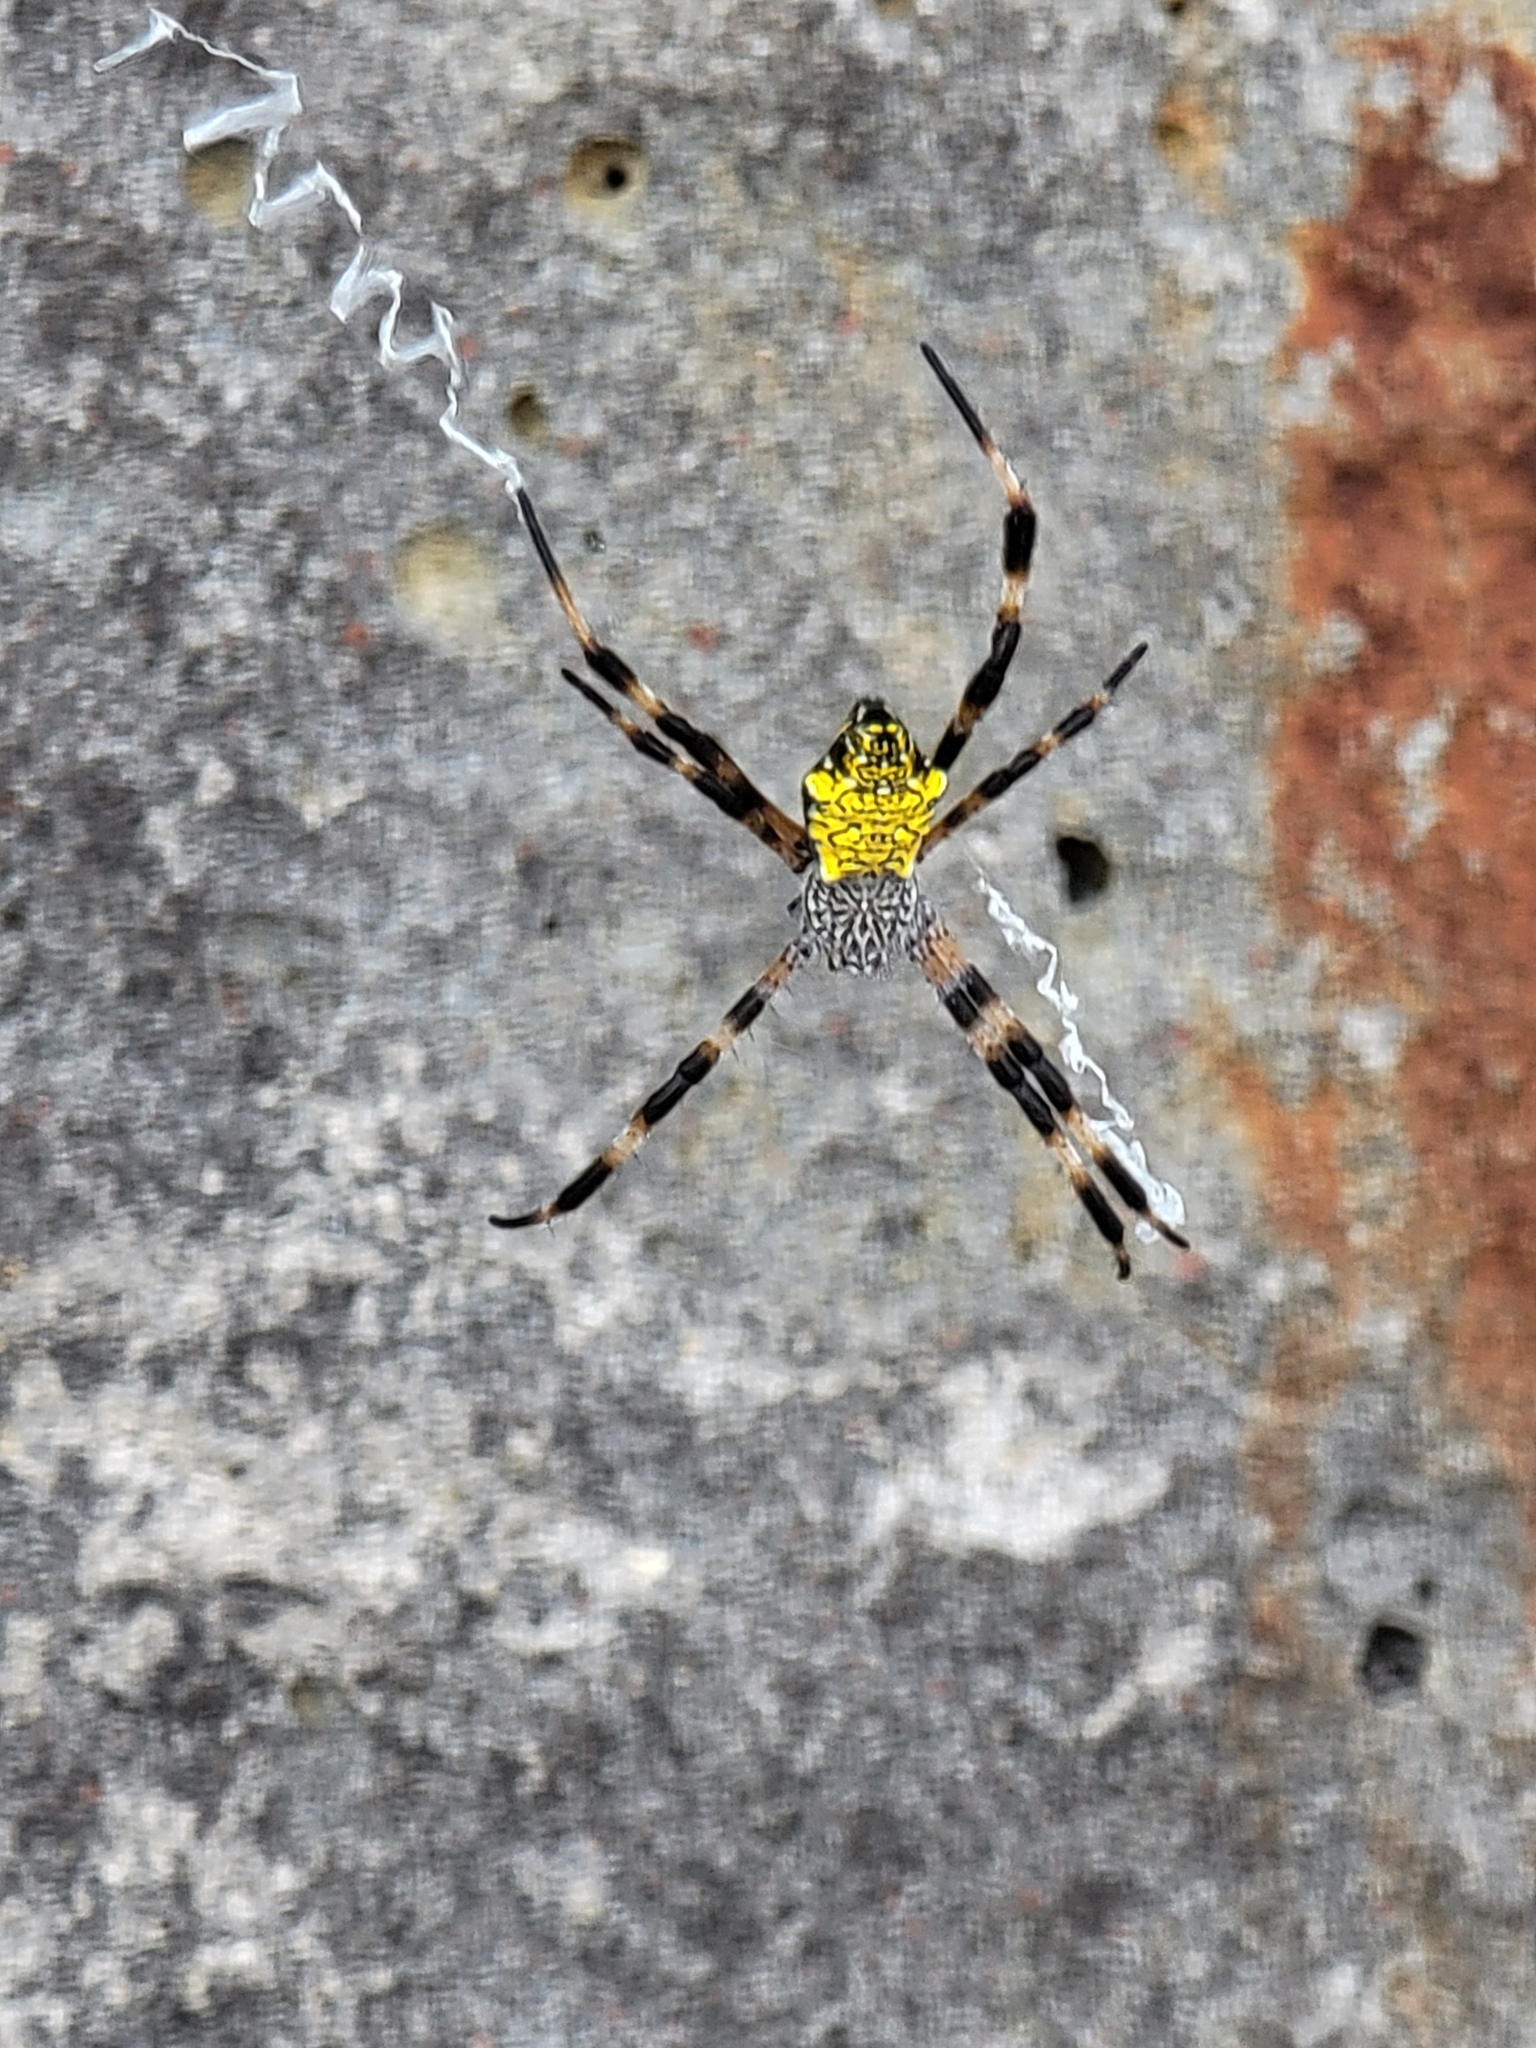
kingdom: Animalia
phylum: Arthropoda
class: Arachnida
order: Araneae
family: Araneidae
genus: Argiope
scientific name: Argiope appensa
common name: Garden spider
